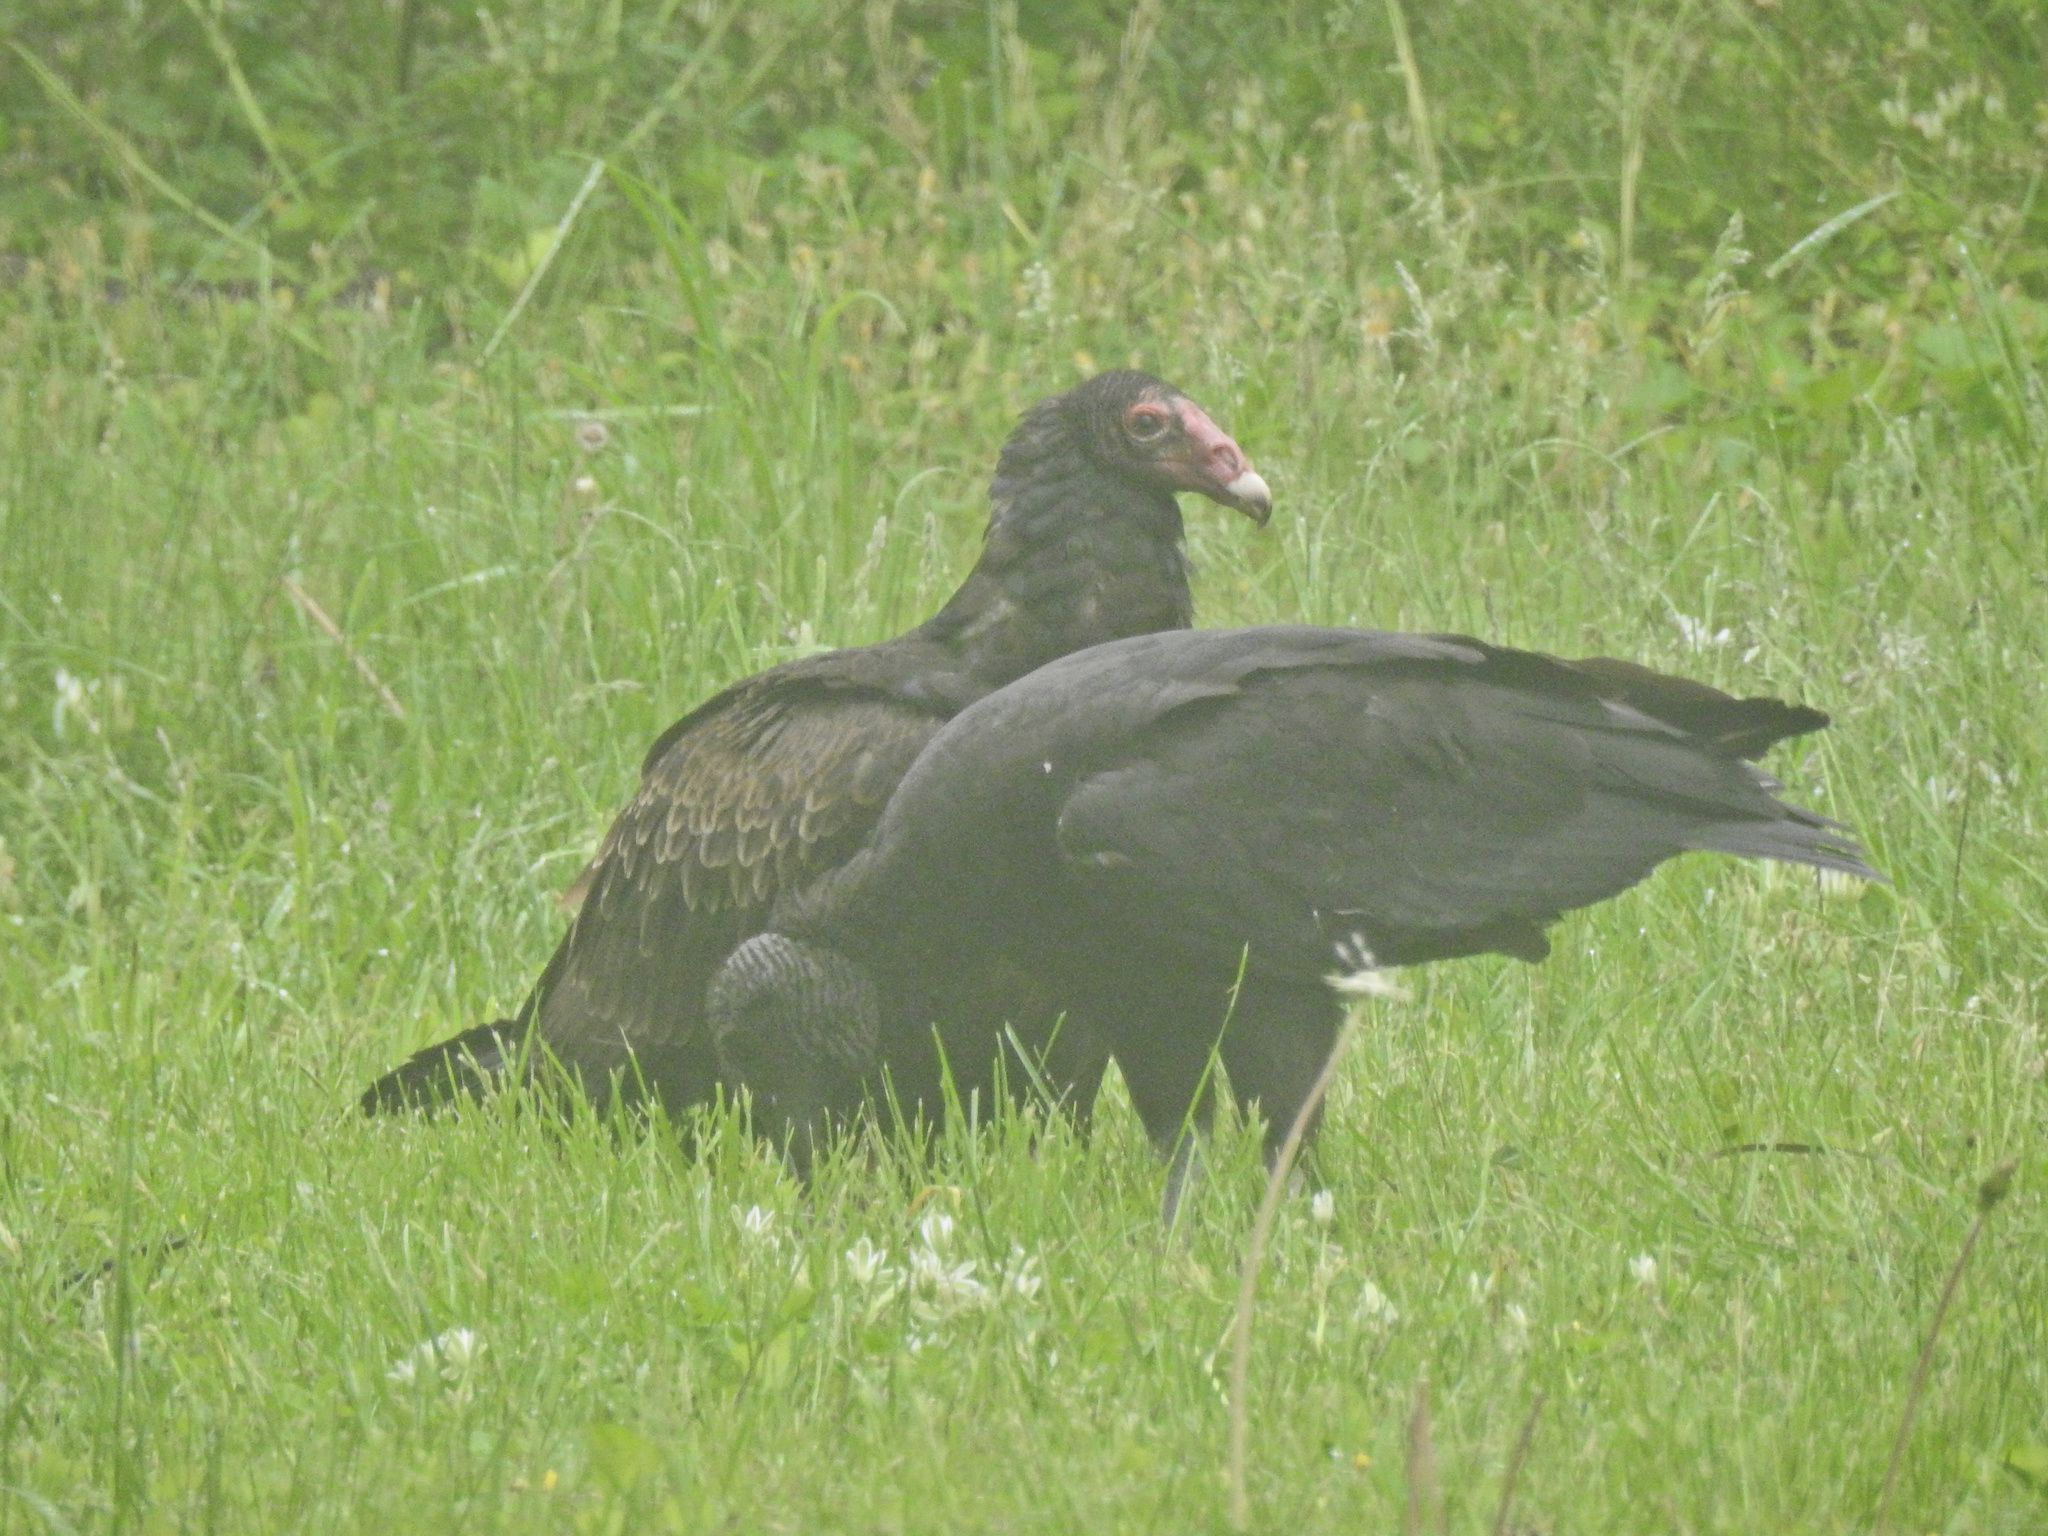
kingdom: Animalia
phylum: Chordata
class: Aves
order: Accipitriformes
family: Cathartidae
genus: Cathartes
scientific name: Cathartes aura
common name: Turkey vulture
